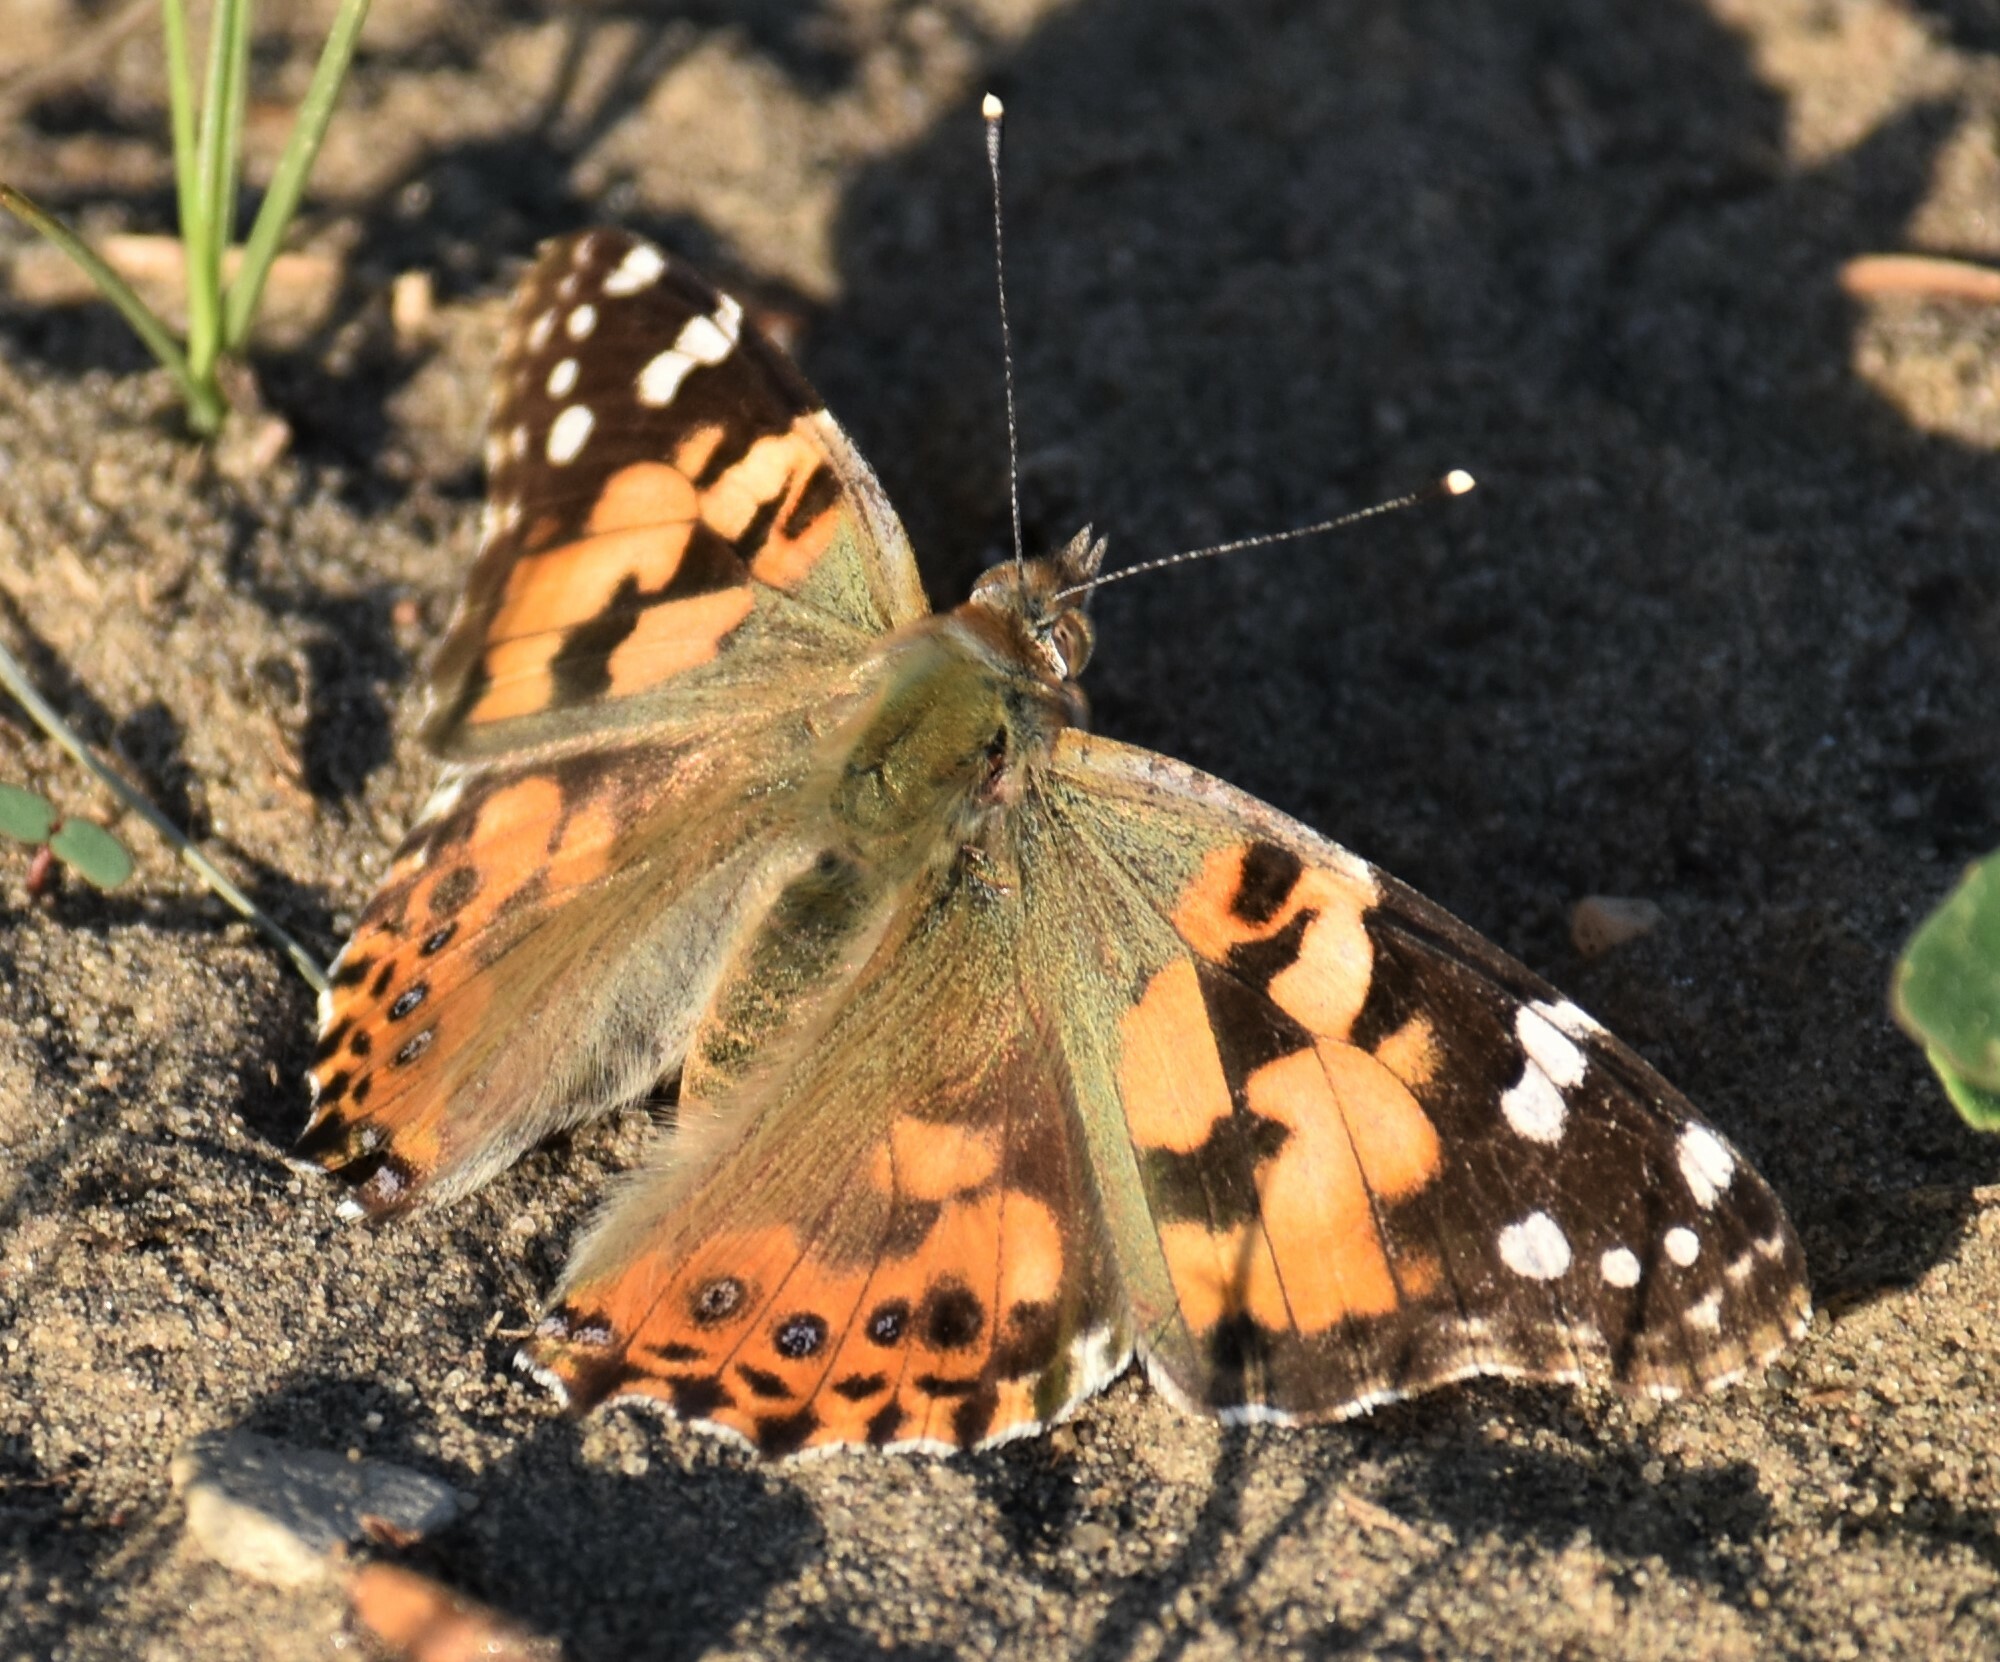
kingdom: Animalia
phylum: Arthropoda
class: Insecta
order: Lepidoptera
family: Nymphalidae
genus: Vanessa
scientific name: Vanessa cardui
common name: Painted lady
